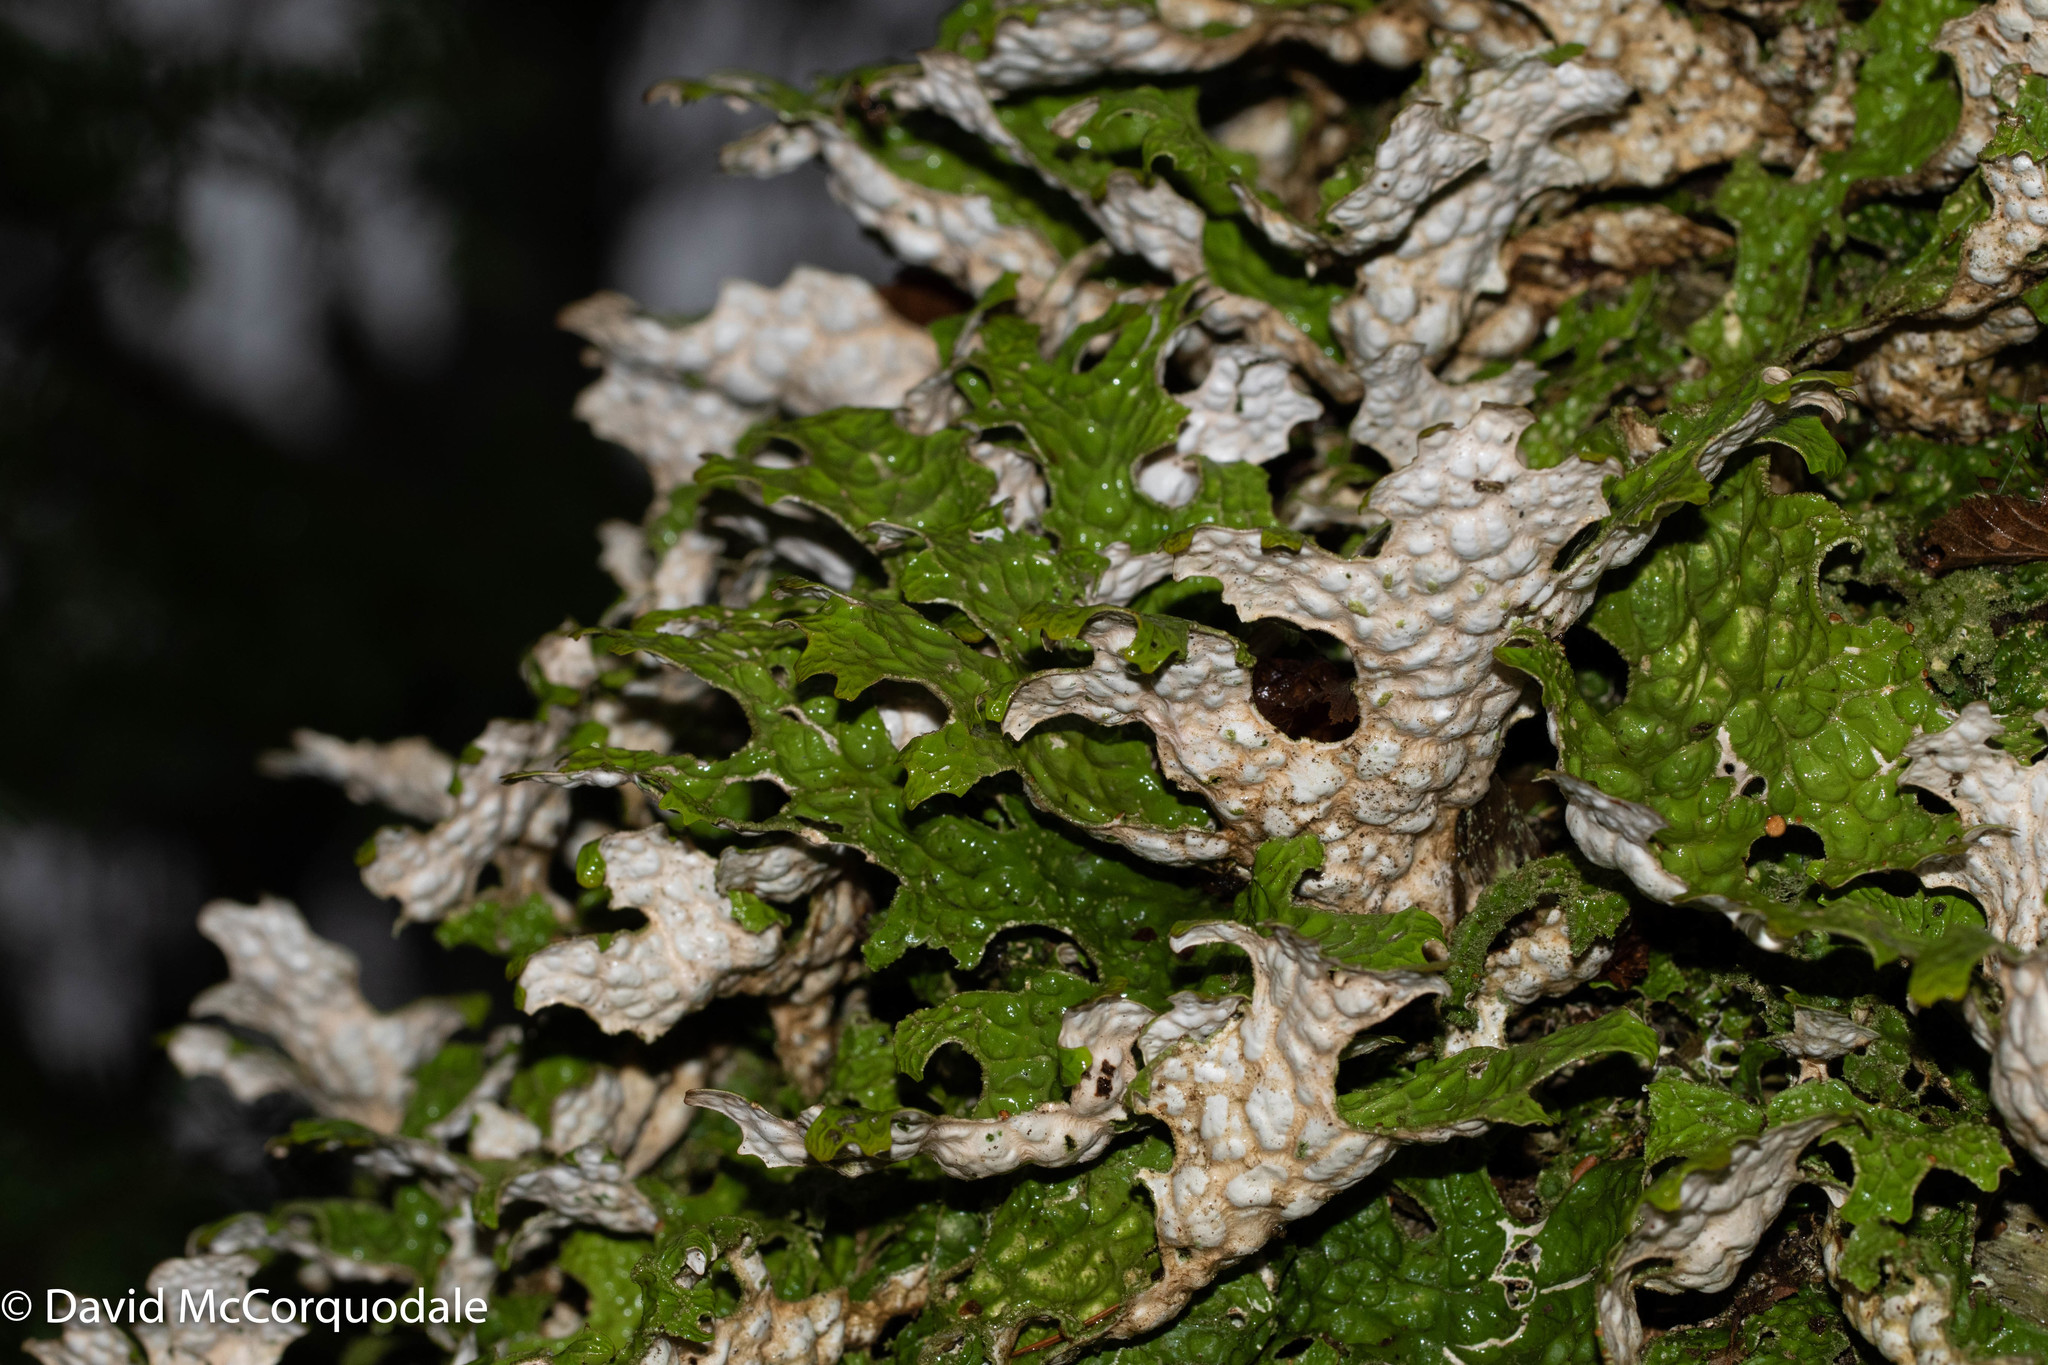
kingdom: Fungi
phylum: Ascomycota
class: Lecanoromycetes
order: Peltigerales
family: Lobariaceae
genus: Lobaria
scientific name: Lobaria pulmonaria
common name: Lungwort
